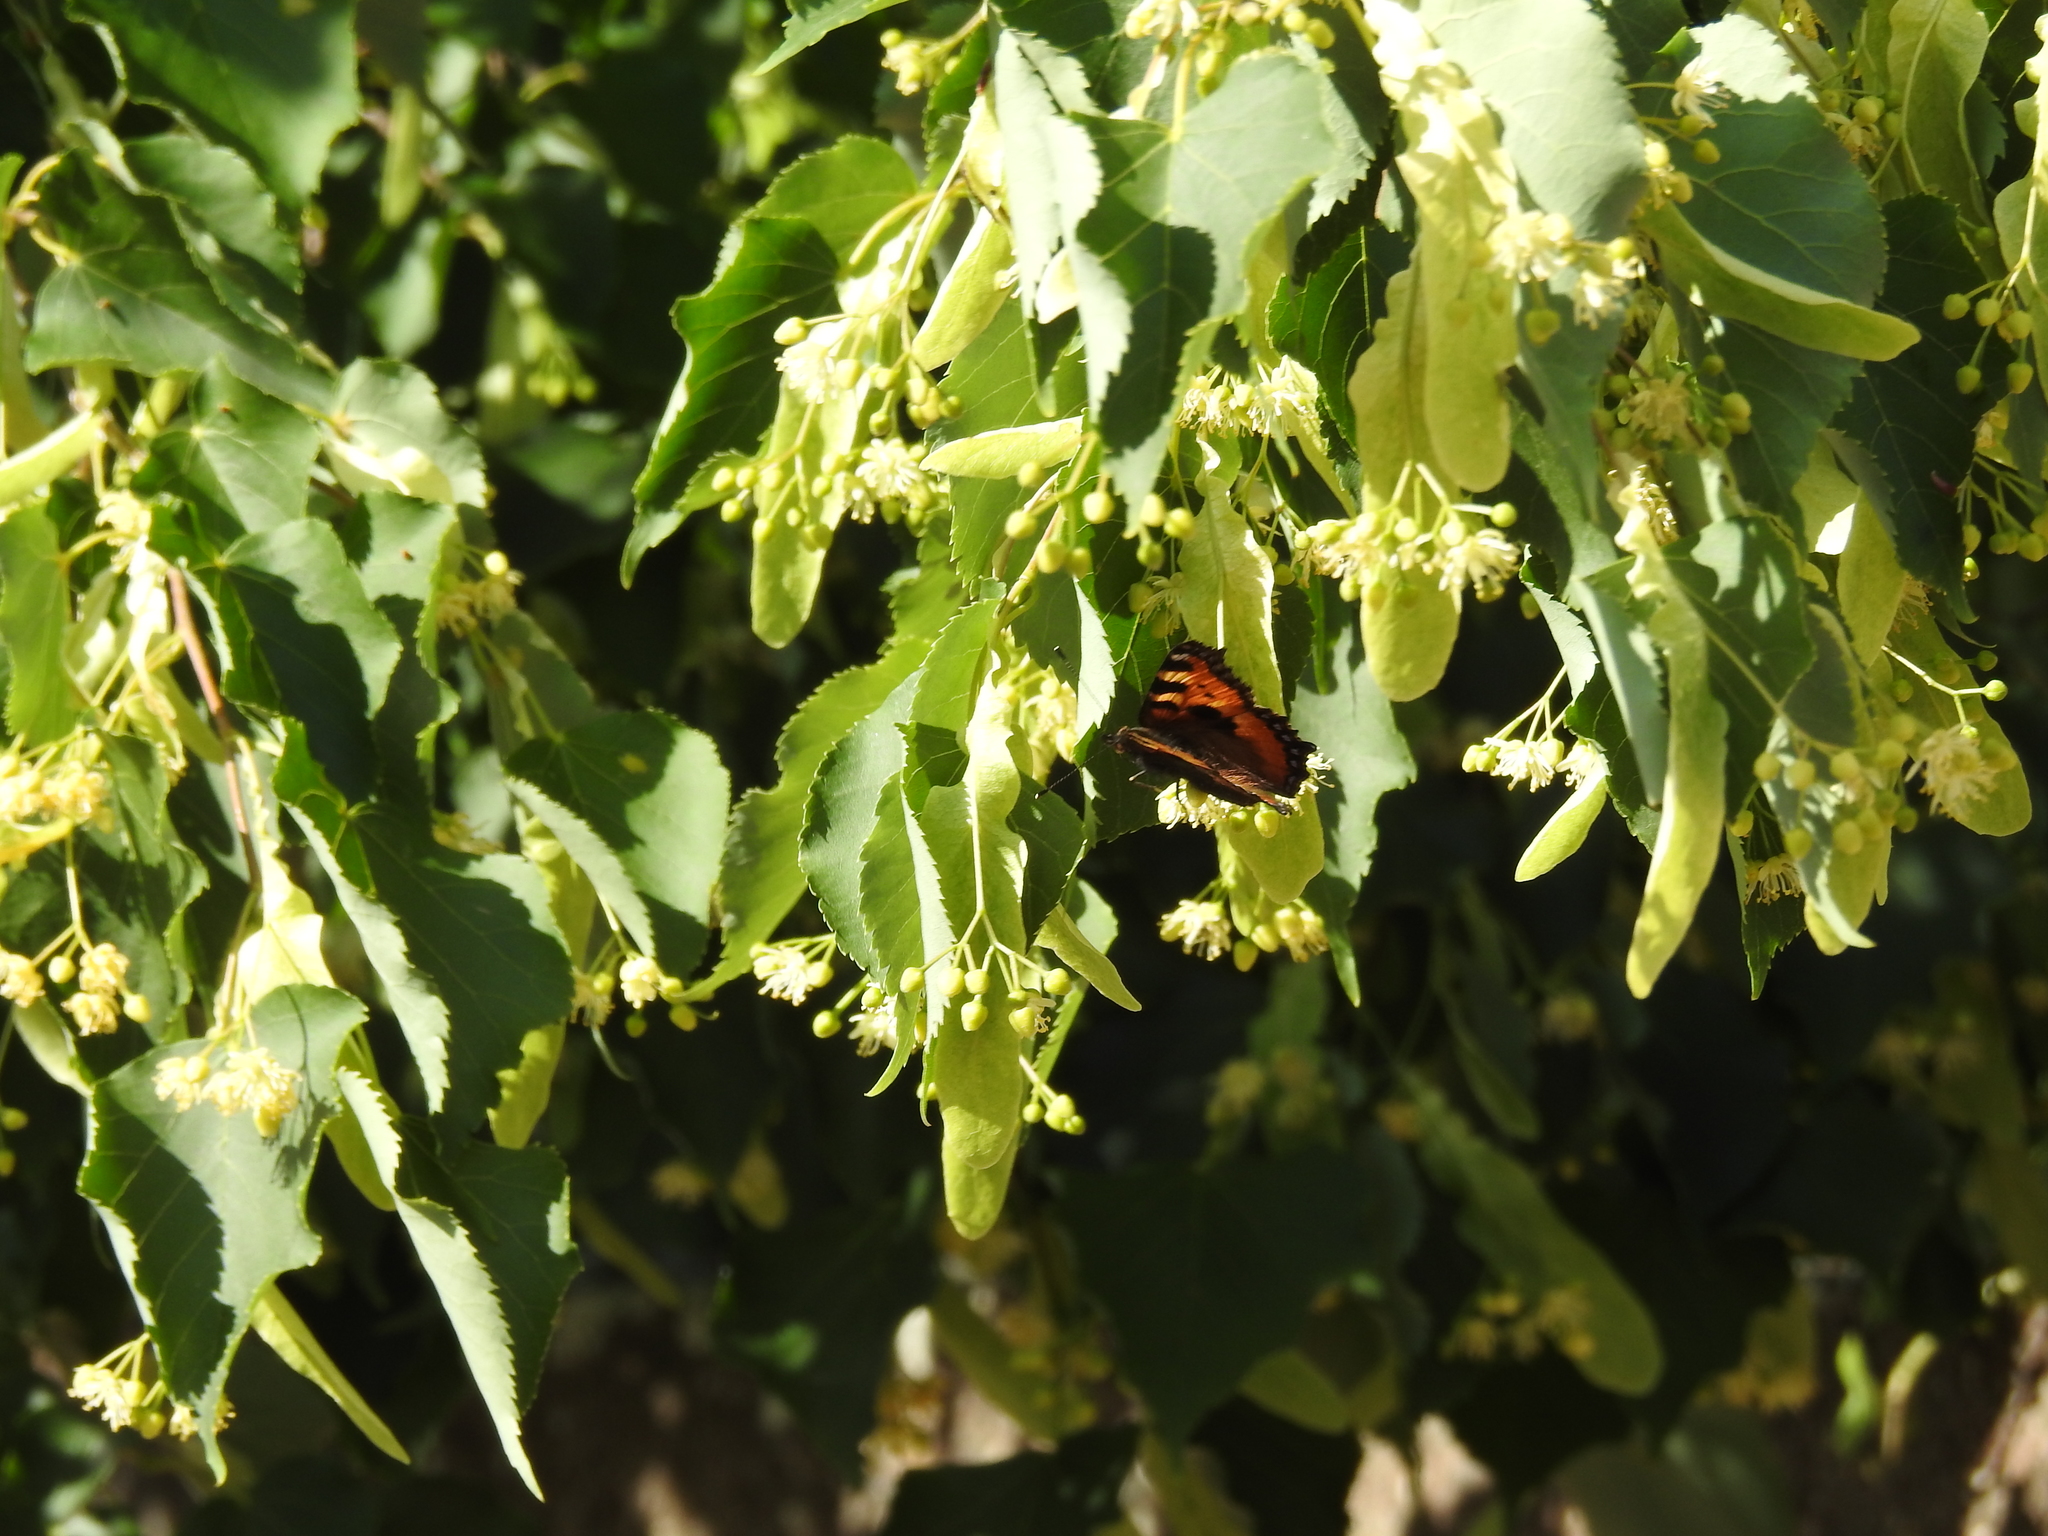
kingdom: Animalia
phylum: Arthropoda
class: Insecta
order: Lepidoptera
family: Nymphalidae
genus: Aglais
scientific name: Aglais urticae
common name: Small tortoiseshell
